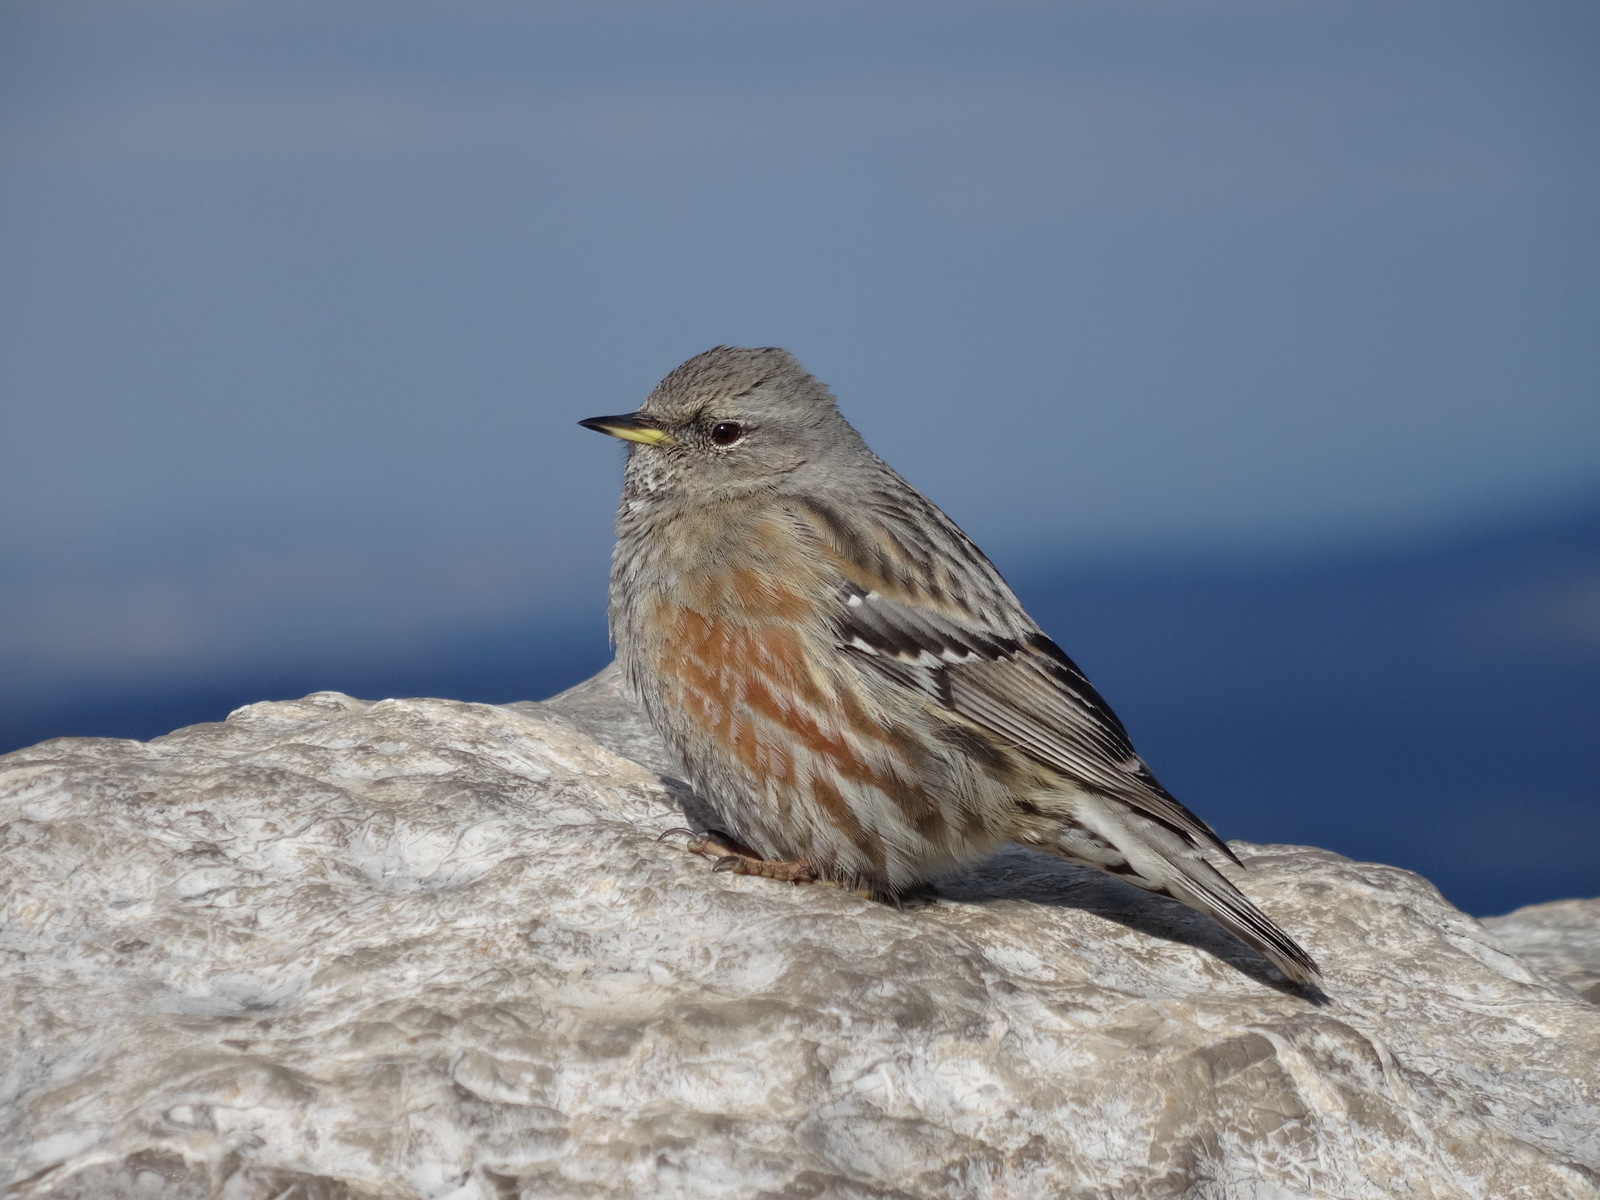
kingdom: Animalia
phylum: Chordata
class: Aves
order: Passeriformes
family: Prunellidae
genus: Prunella
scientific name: Prunella collaris
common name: Alpine accentor
